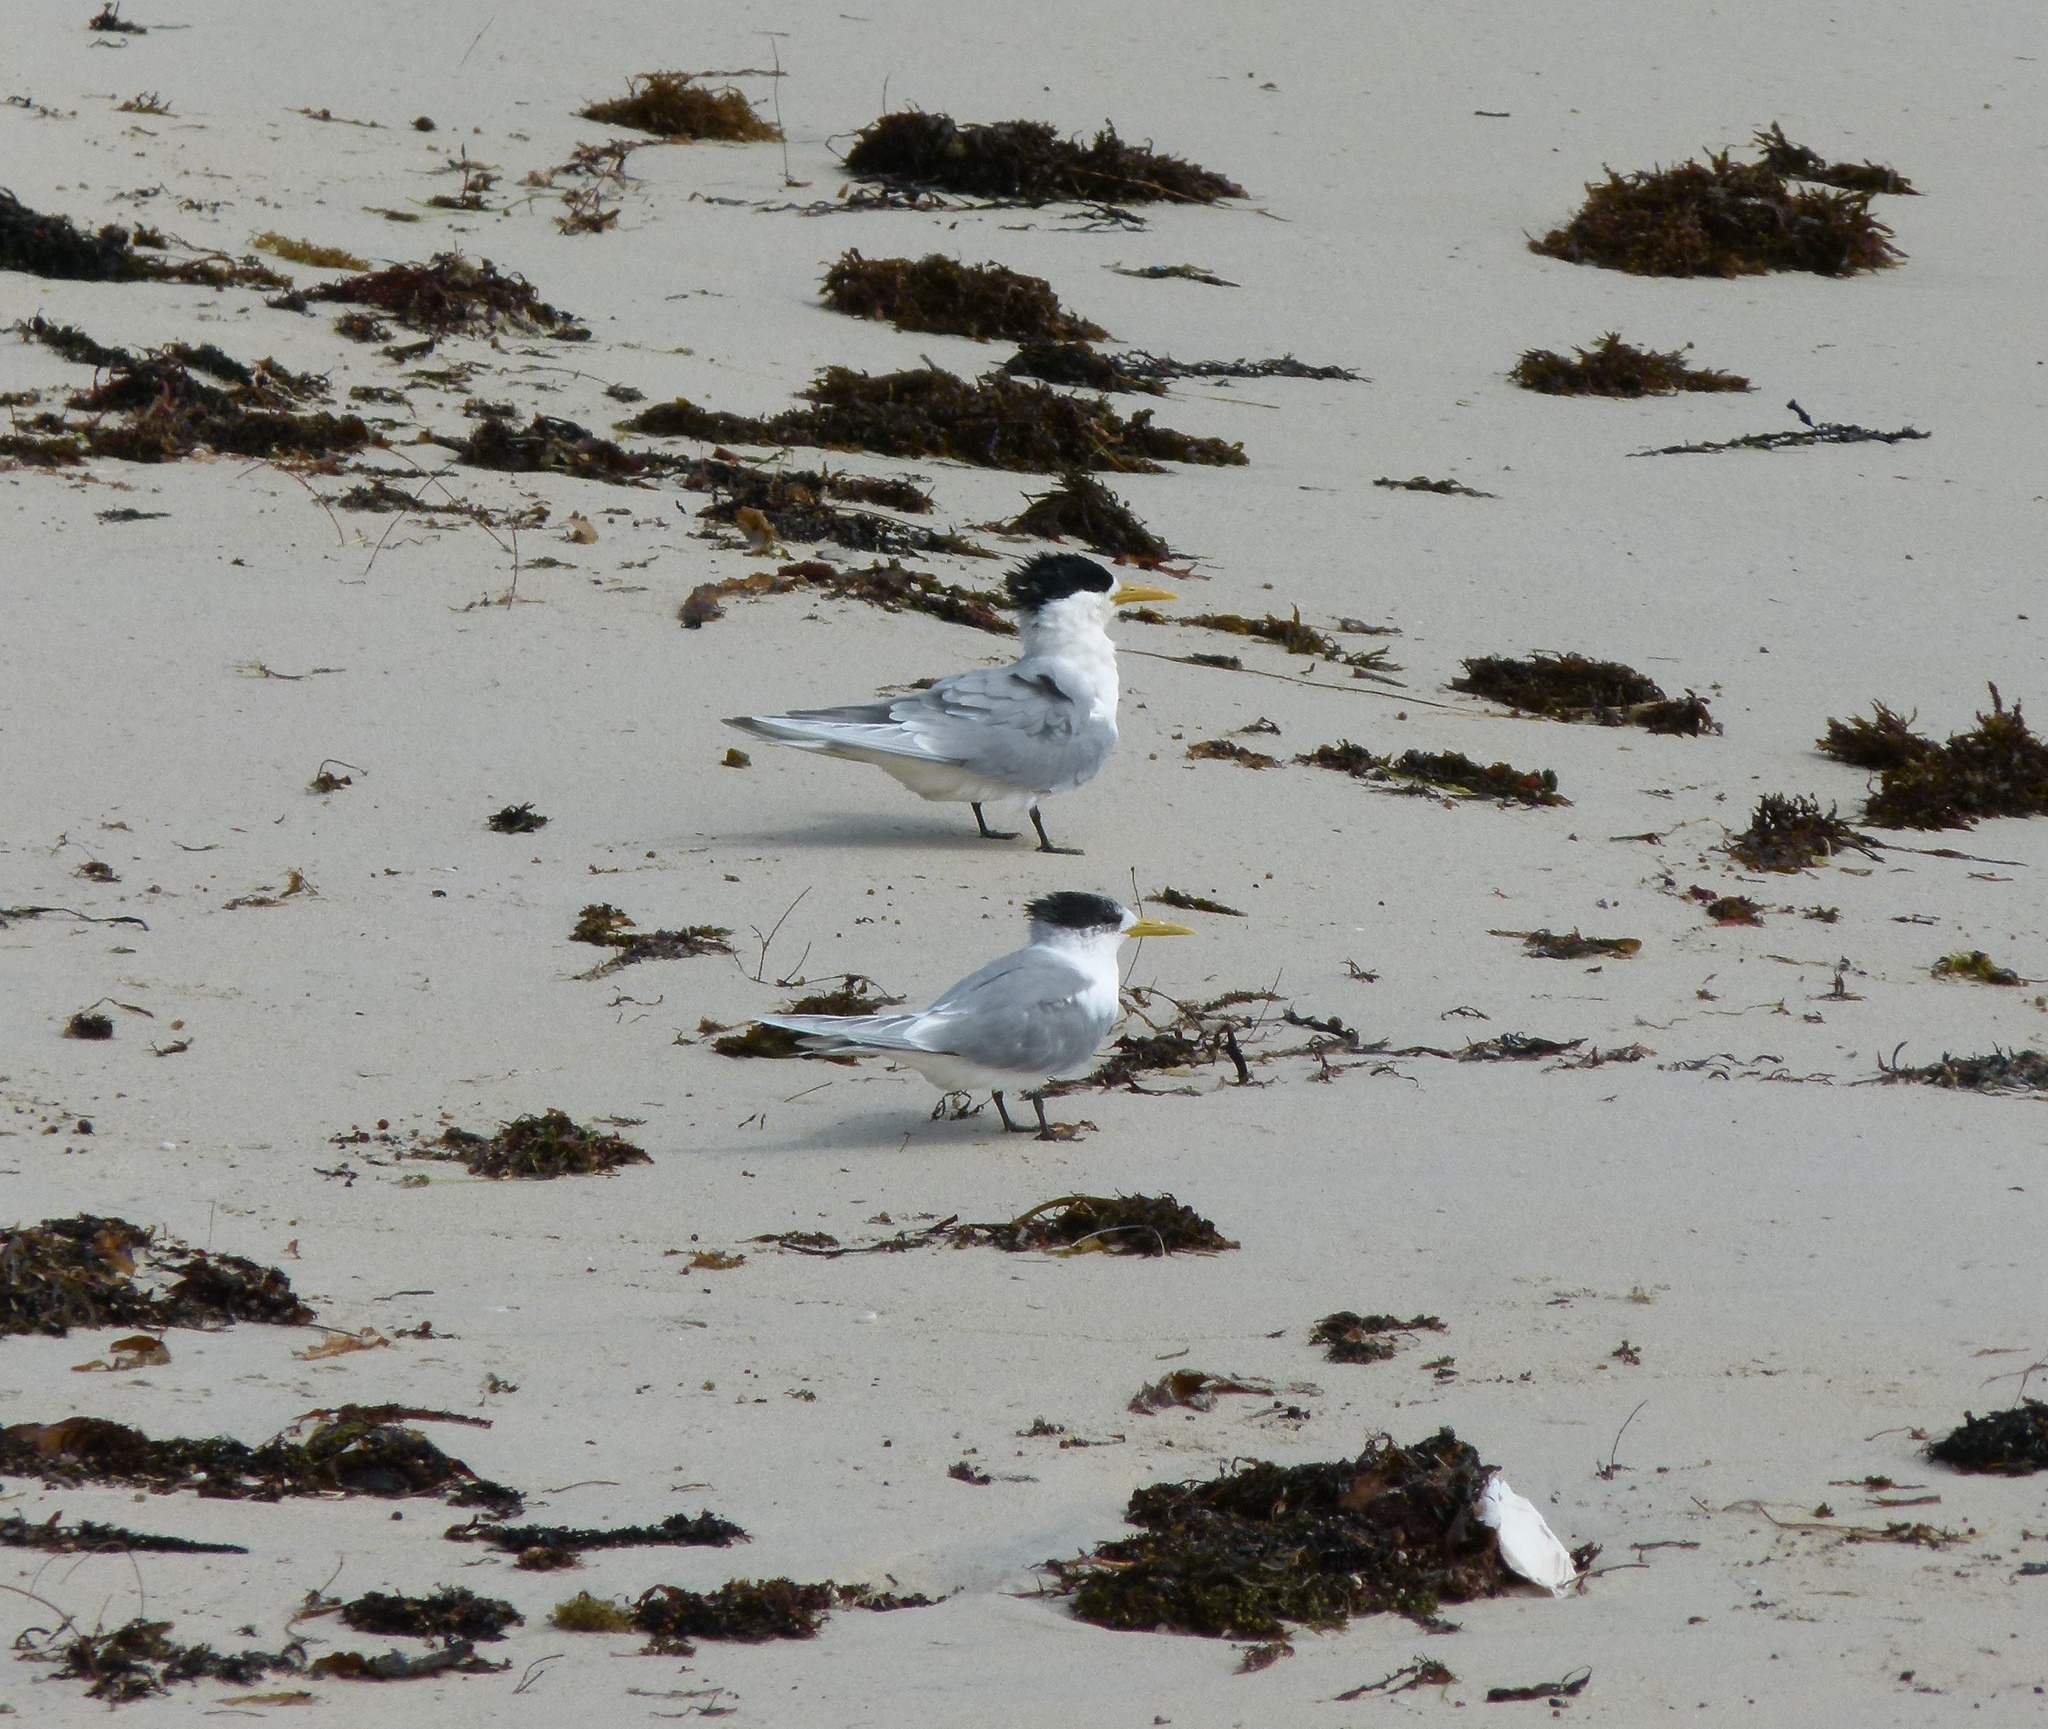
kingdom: Animalia
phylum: Chordata
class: Aves
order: Charadriiformes
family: Laridae
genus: Thalasseus
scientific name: Thalasseus bergii
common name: Greater crested tern
